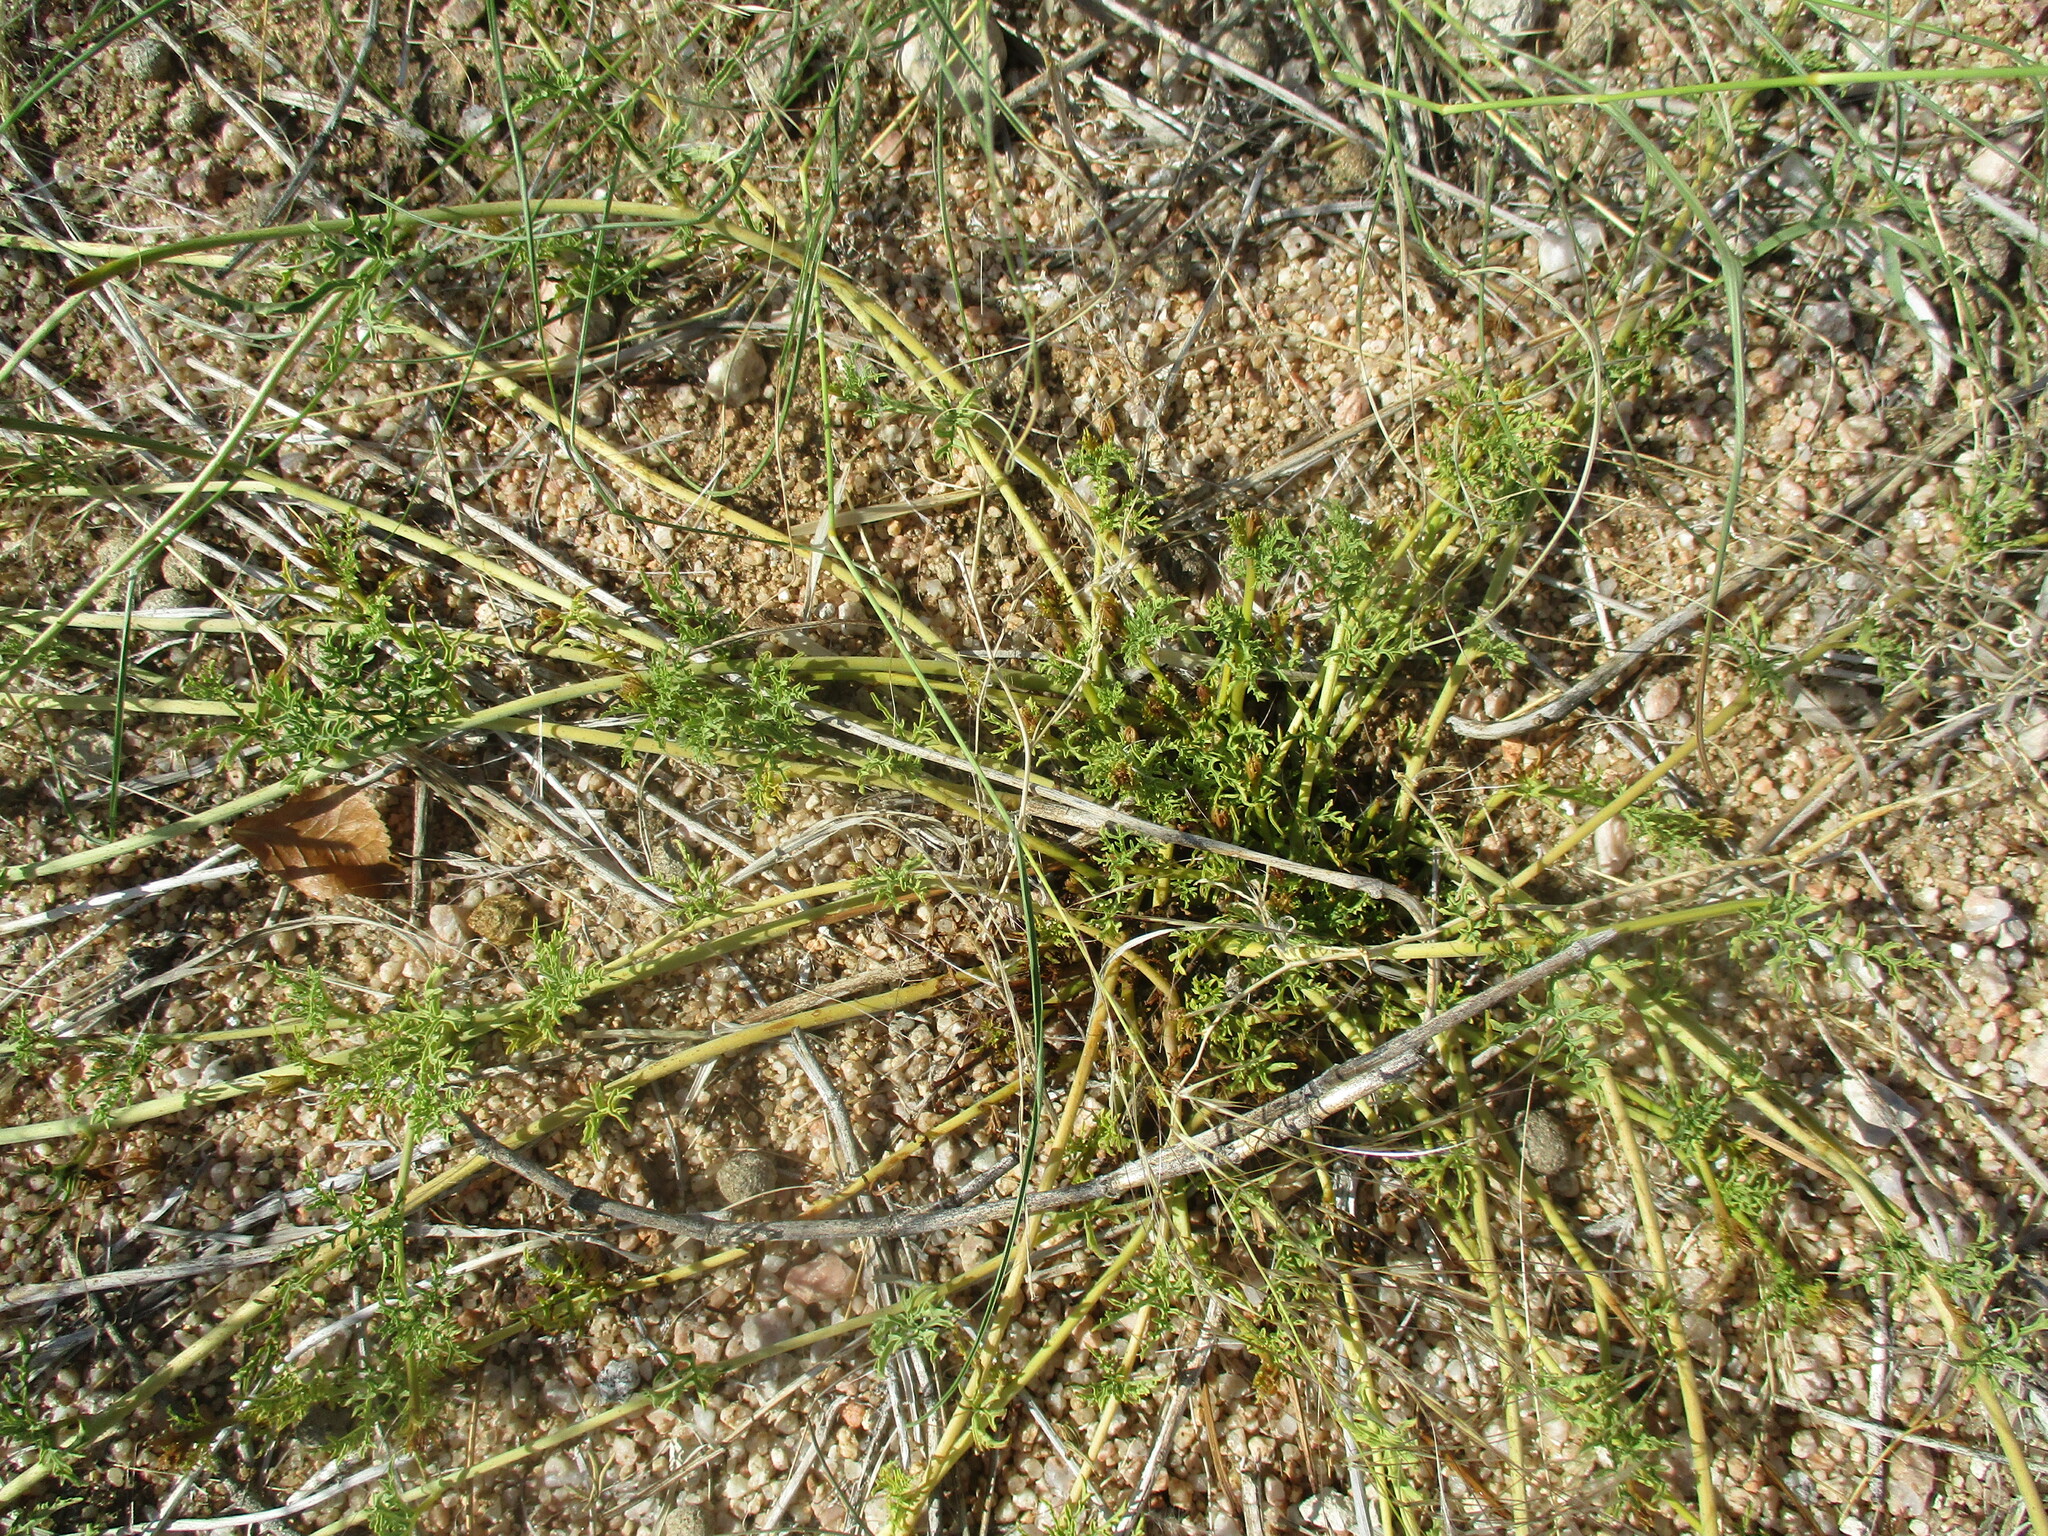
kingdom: Plantae
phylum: Tracheophyta
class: Magnoliopsida
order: Solanales
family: Convolvulaceae
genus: Distimake
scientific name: Distimake bipinnatipartitus
